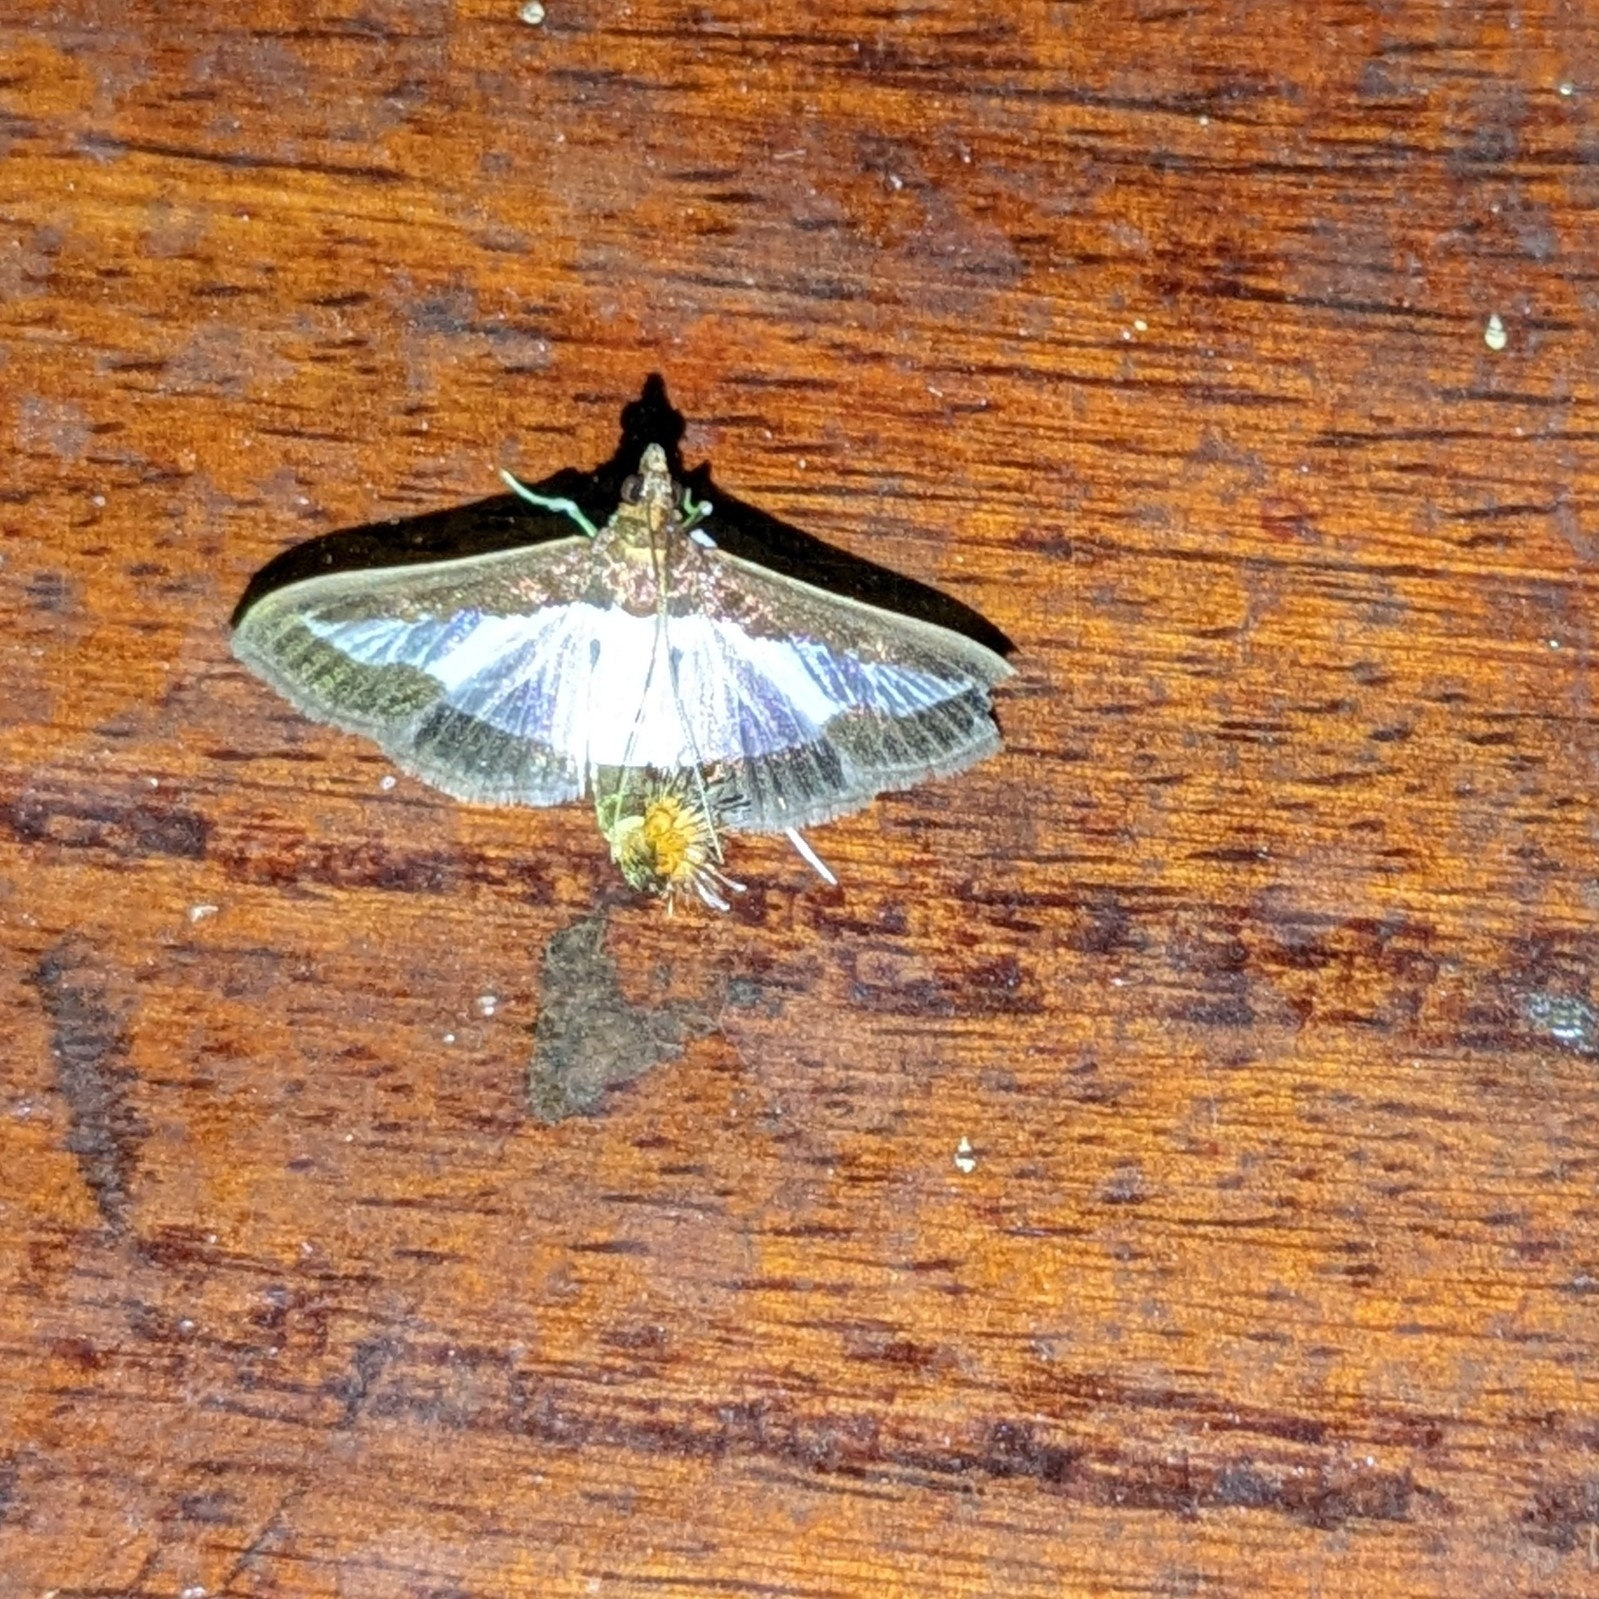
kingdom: Animalia
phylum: Arthropoda
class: Insecta
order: Lepidoptera
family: Crambidae
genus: Diaphania
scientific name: Diaphania indica
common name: Cucumber moth
